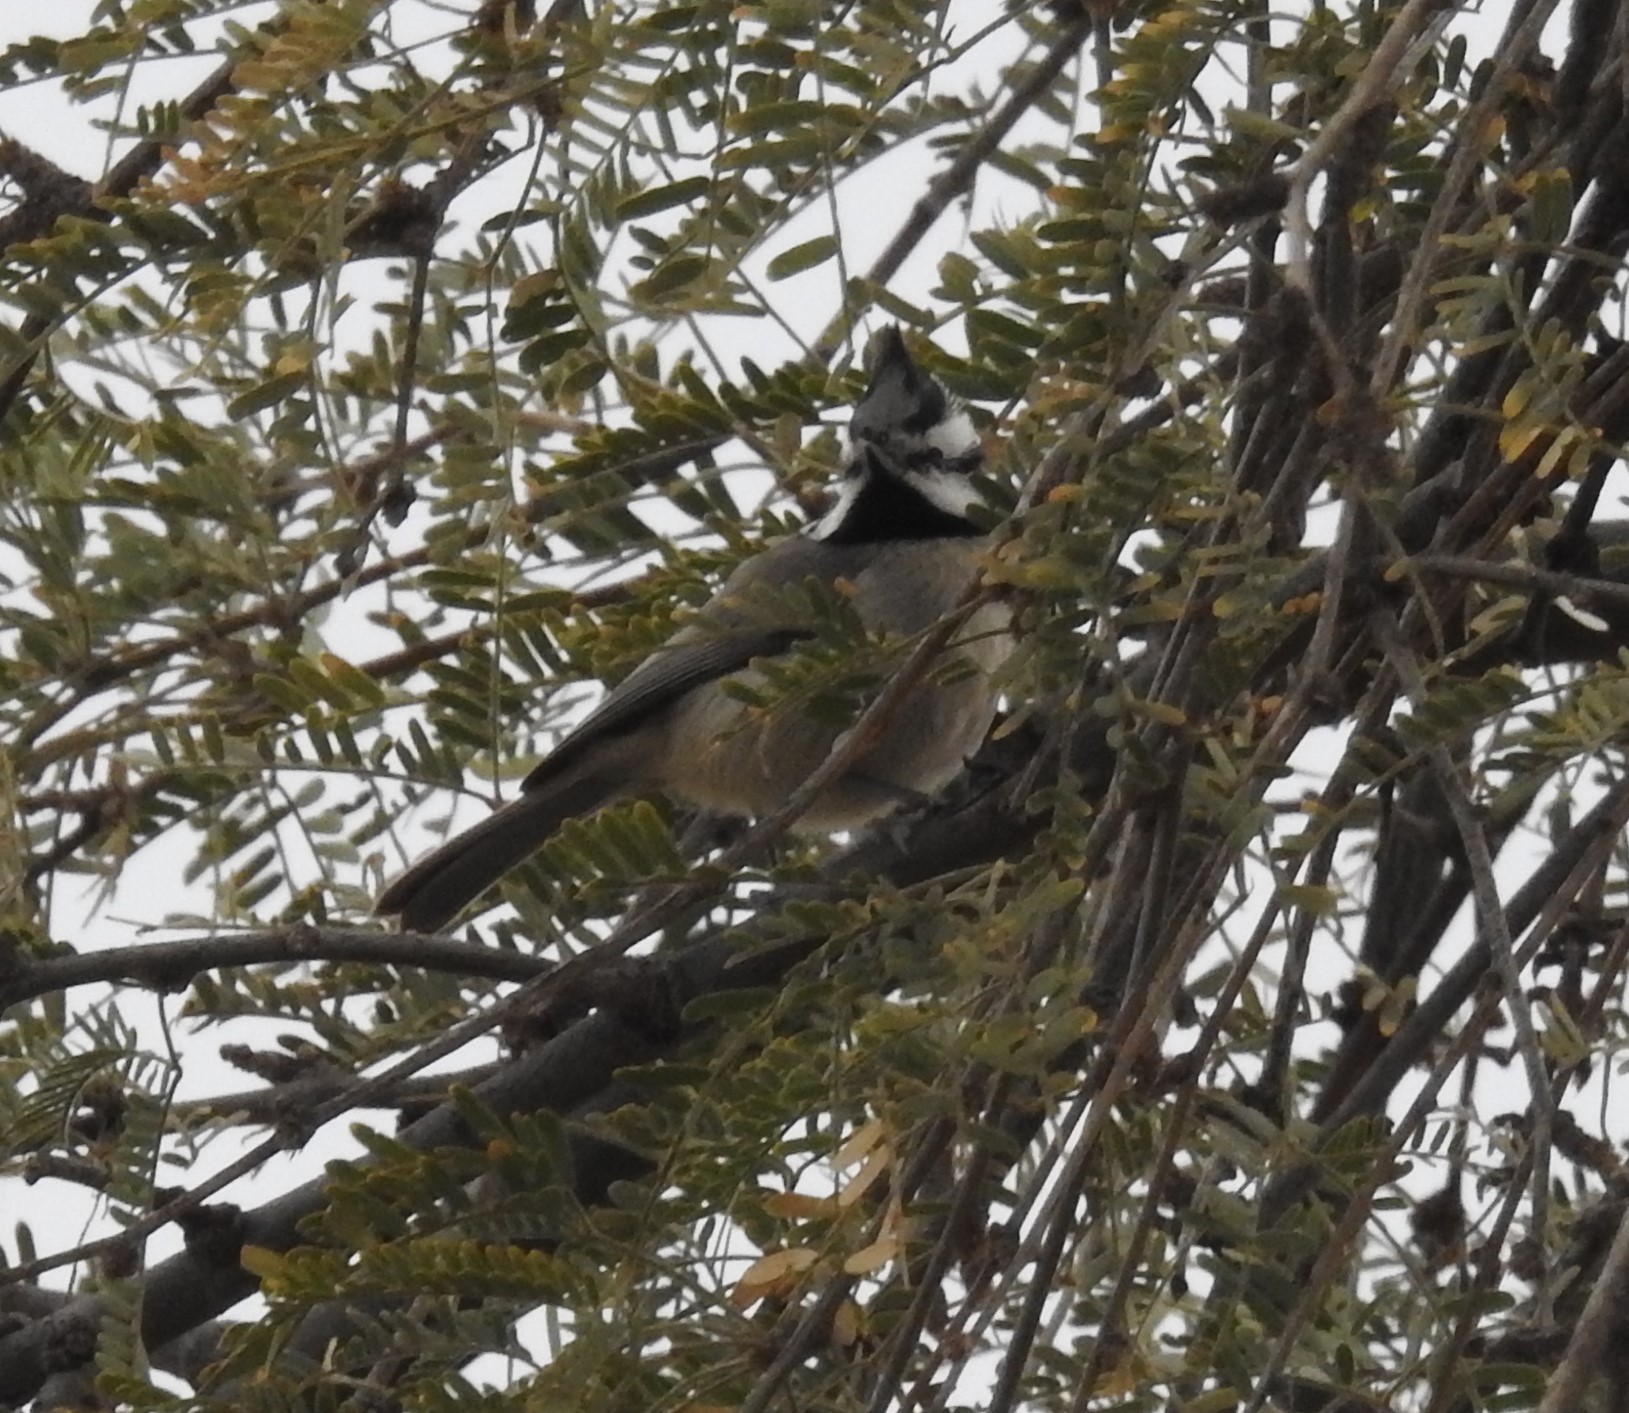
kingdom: Animalia
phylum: Chordata
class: Aves
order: Passeriformes
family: Paridae
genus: Baeolophus
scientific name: Baeolophus wollweberi
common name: Bridled titmouse
